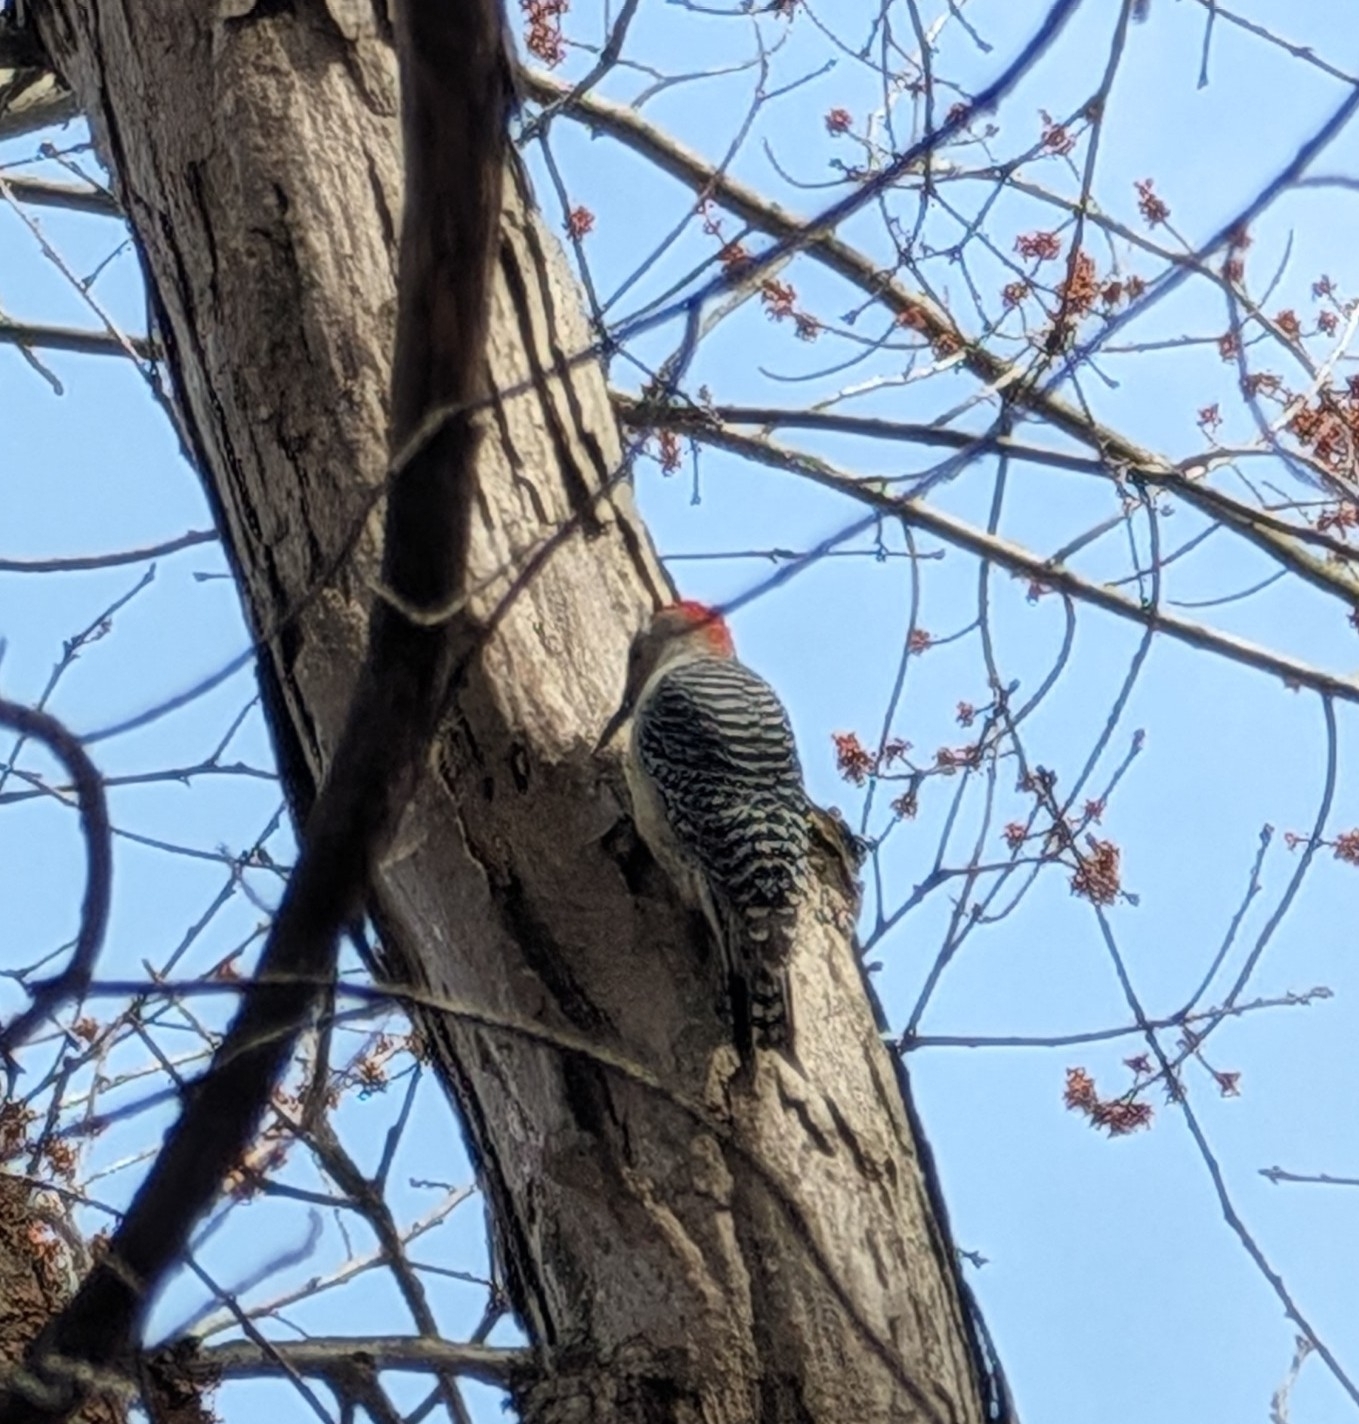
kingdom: Animalia
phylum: Chordata
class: Aves
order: Piciformes
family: Picidae
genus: Melanerpes
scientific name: Melanerpes carolinus
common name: Red-bellied woodpecker
